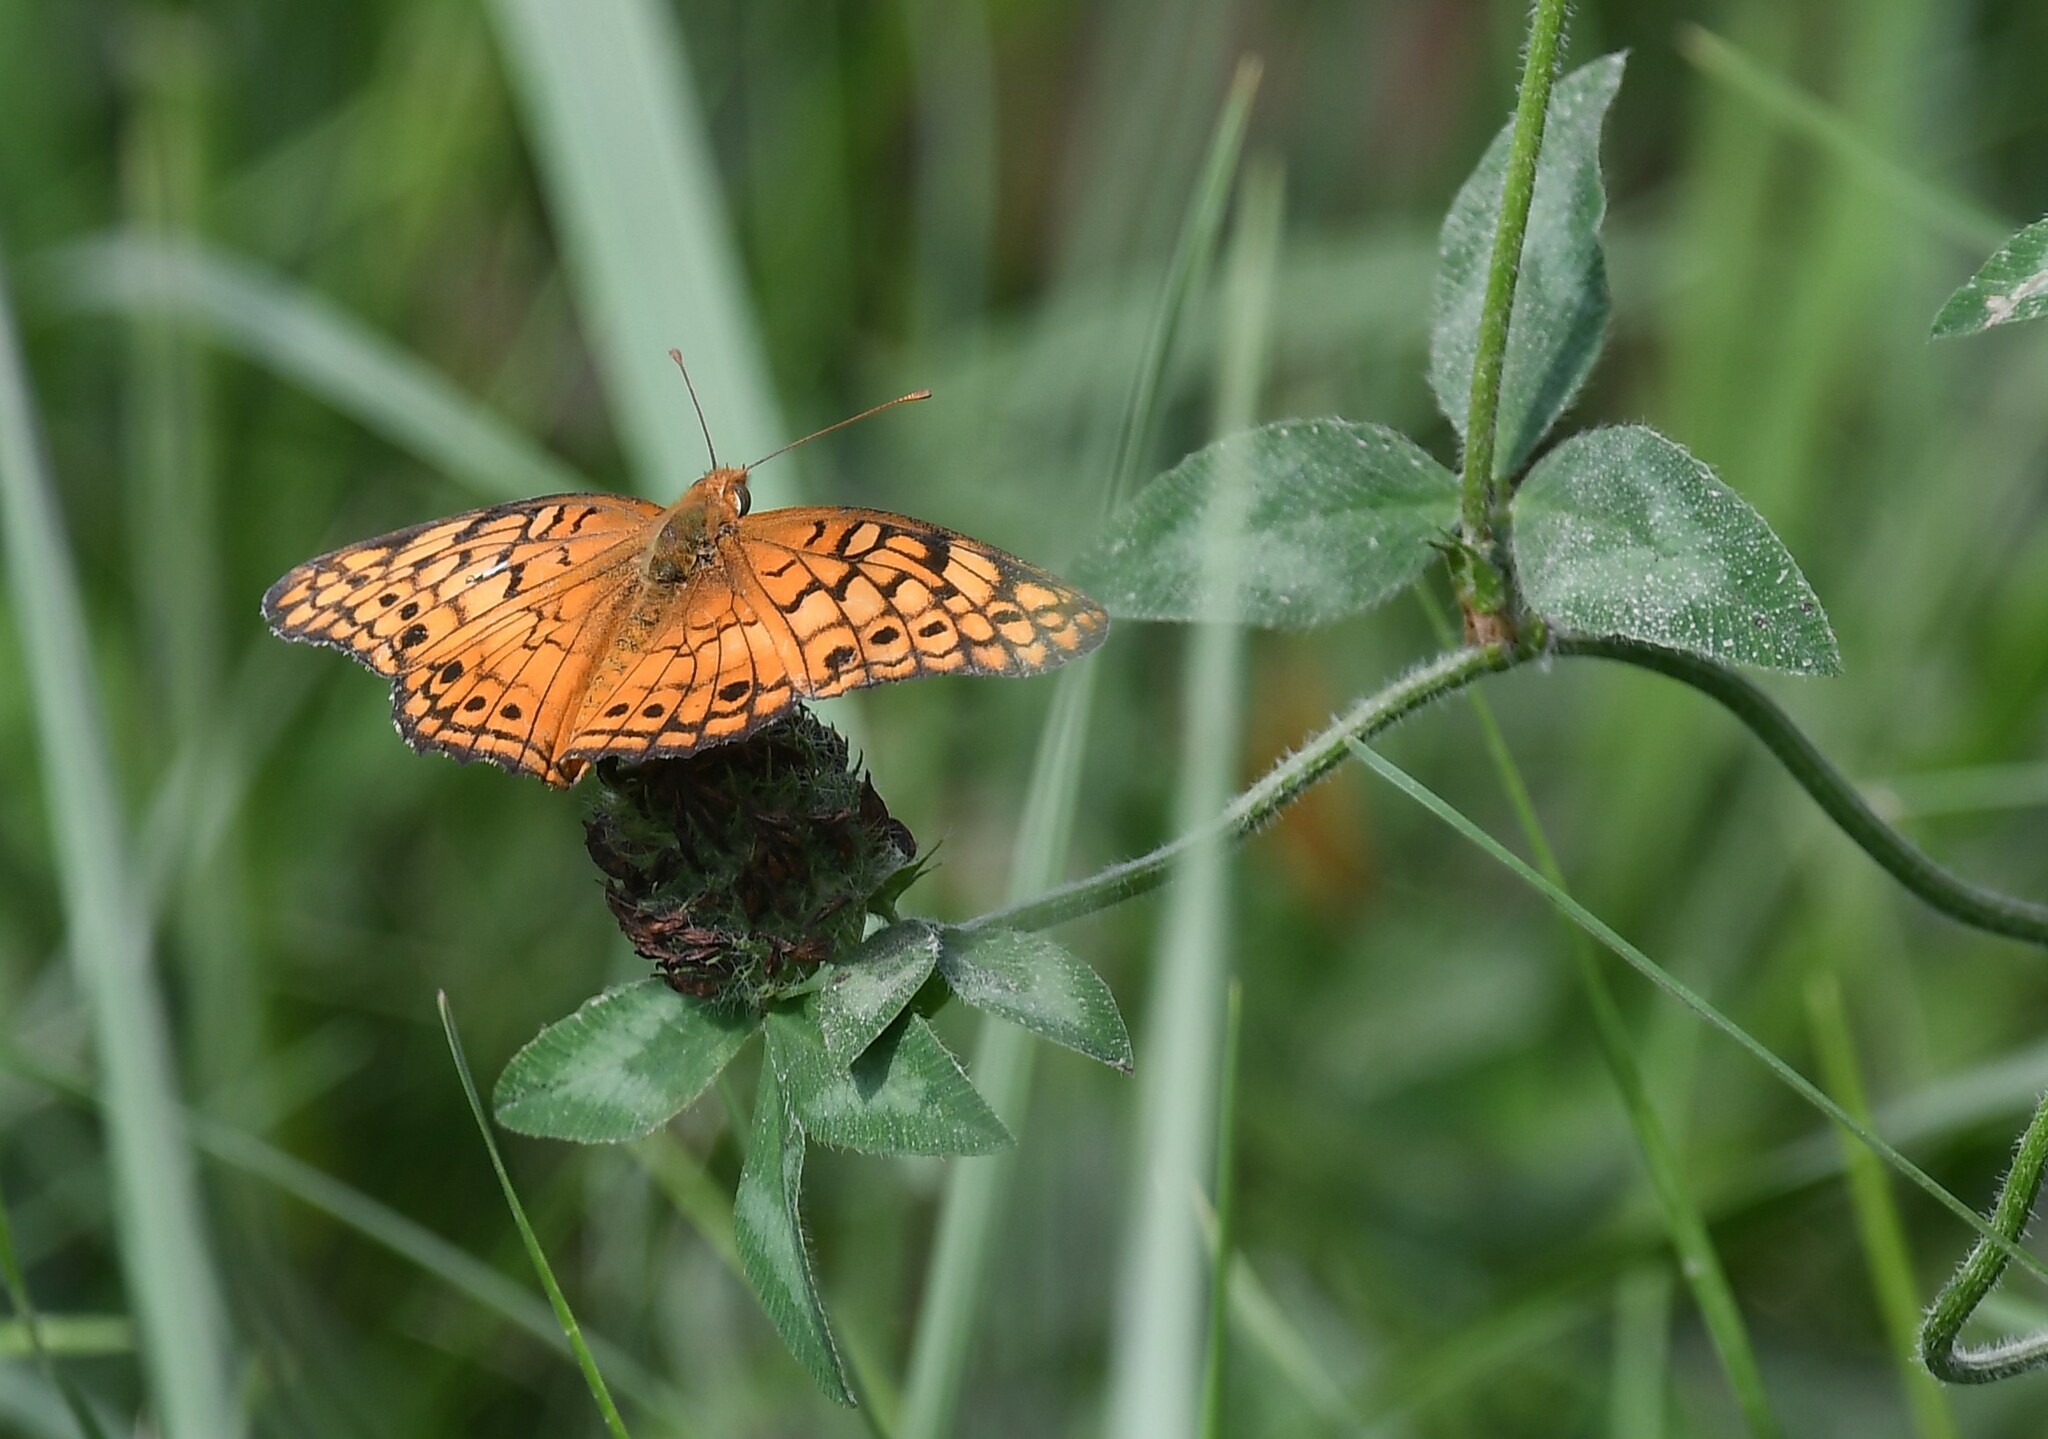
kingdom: Animalia
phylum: Arthropoda
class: Insecta
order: Lepidoptera
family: Nymphalidae
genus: Euptoieta
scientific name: Euptoieta claudia
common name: Variegated fritillary
